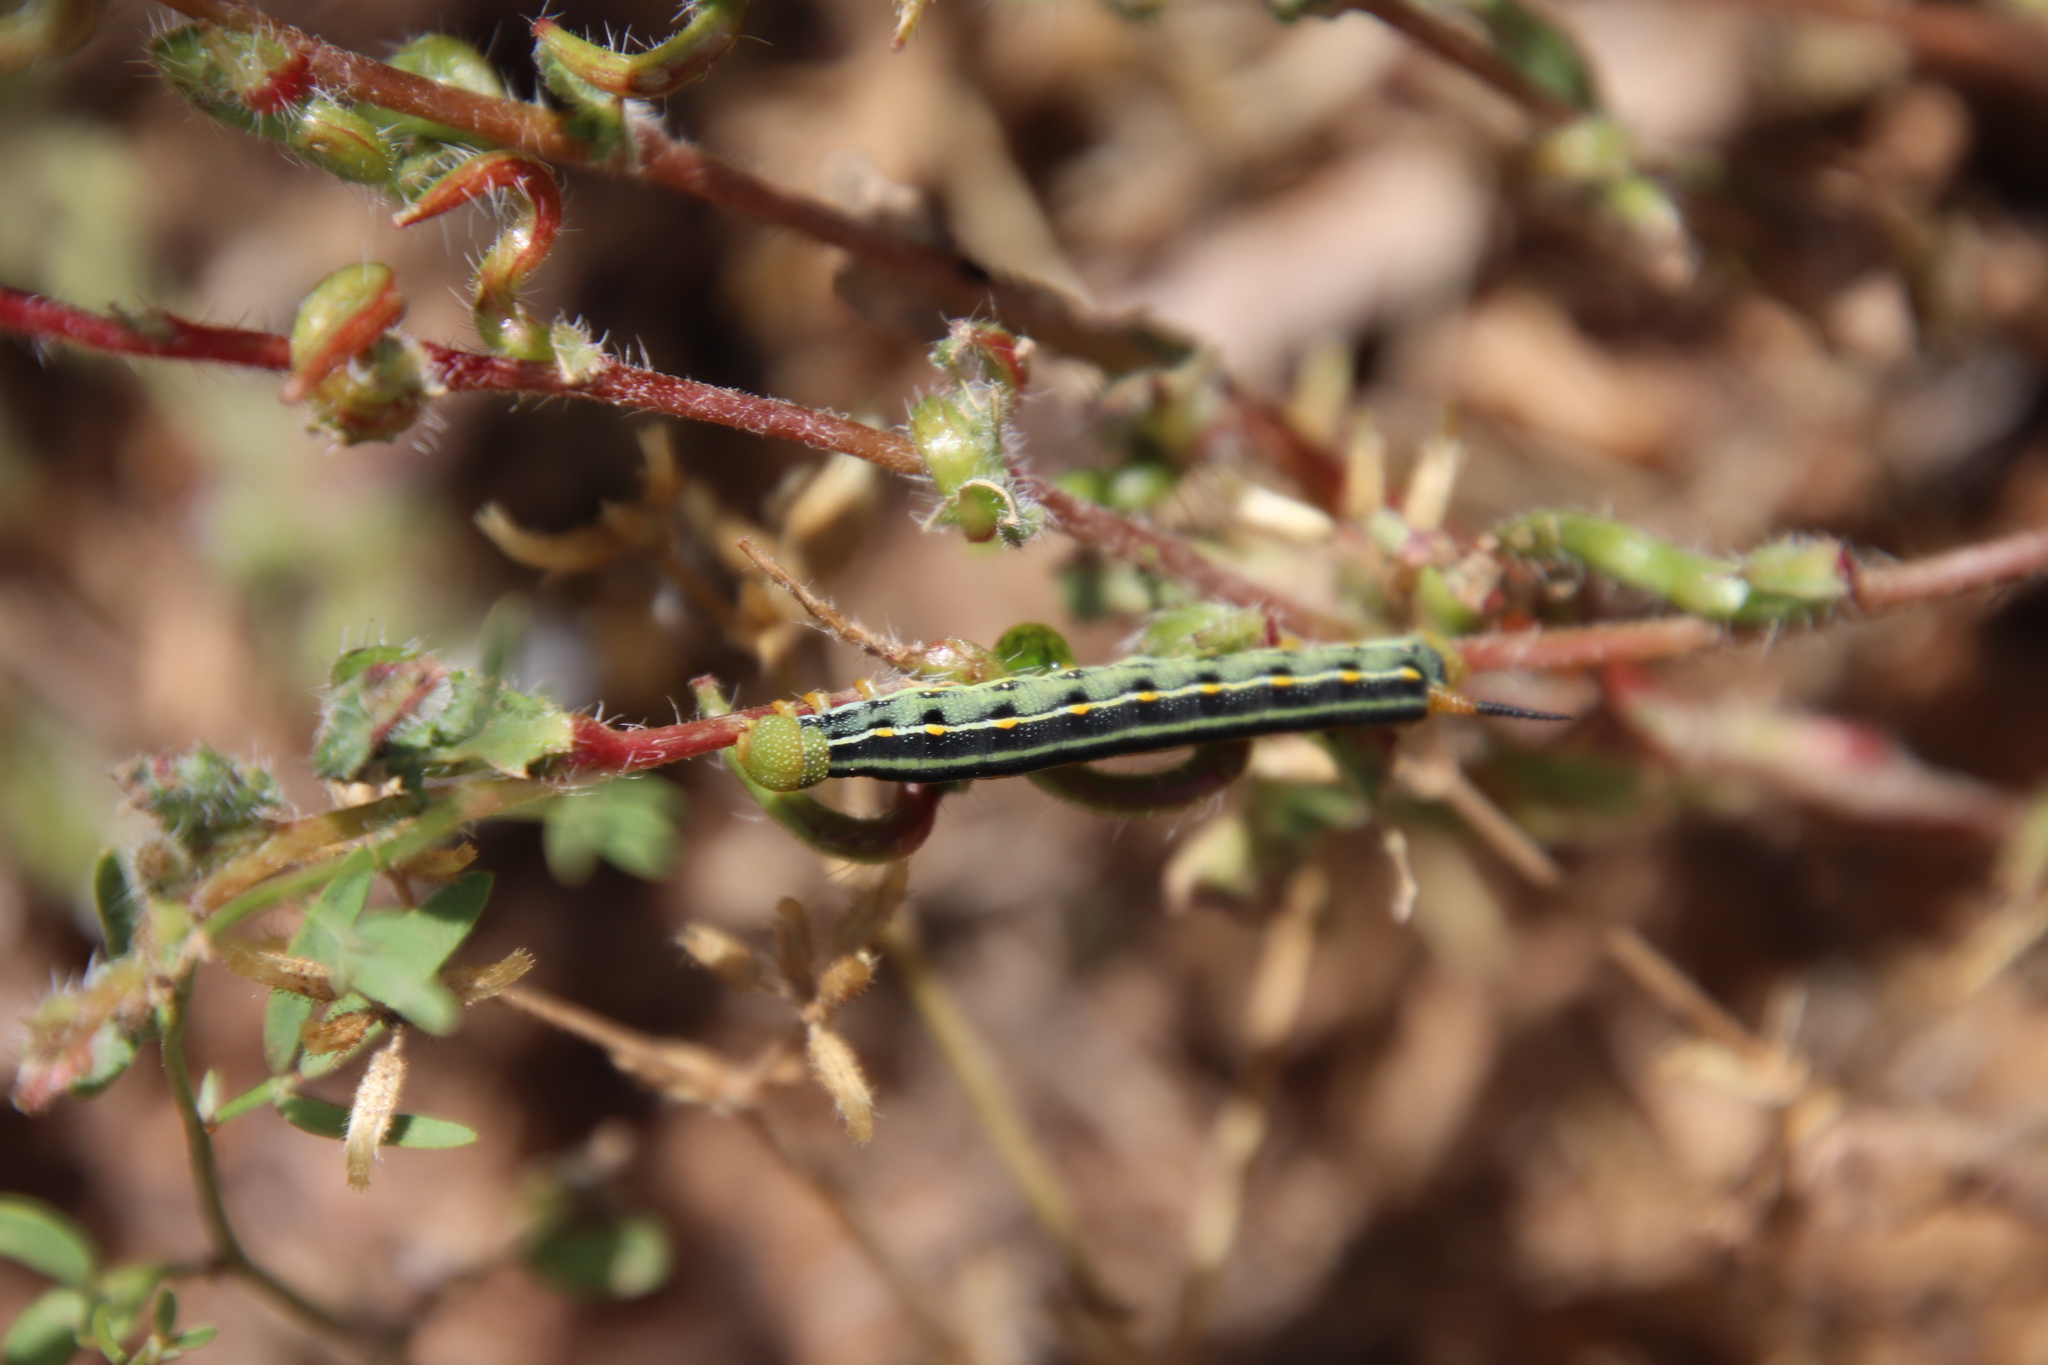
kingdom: Animalia
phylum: Arthropoda
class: Insecta
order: Lepidoptera
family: Sphingidae
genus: Hyles
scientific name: Hyles lineata
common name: White-lined sphinx
